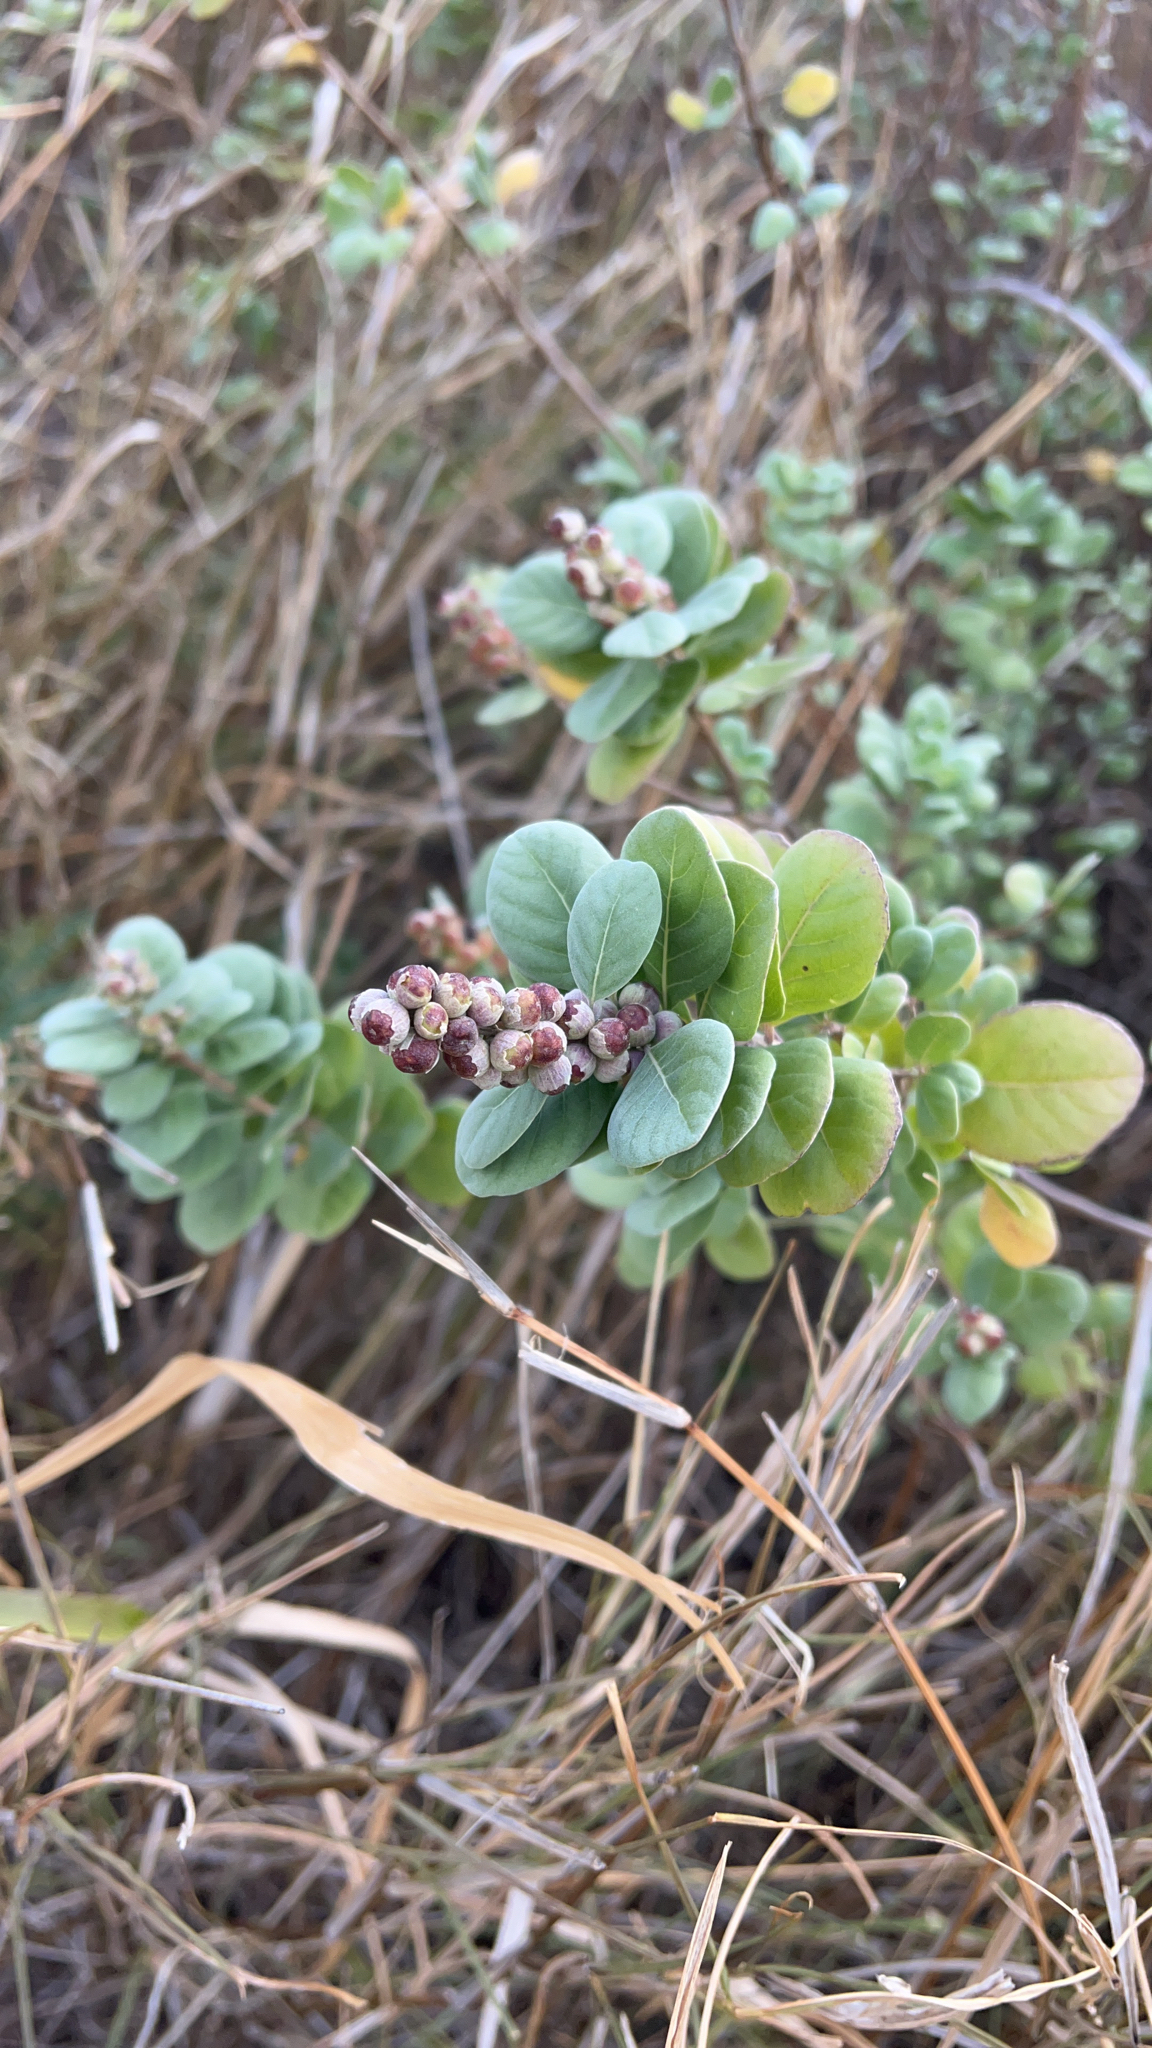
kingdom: Plantae
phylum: Tracheophyta
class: Magnoliopsida
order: Lamiales
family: Lamiaceae
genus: Vitex
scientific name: Vitex rotundifolia
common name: Beach vitex
